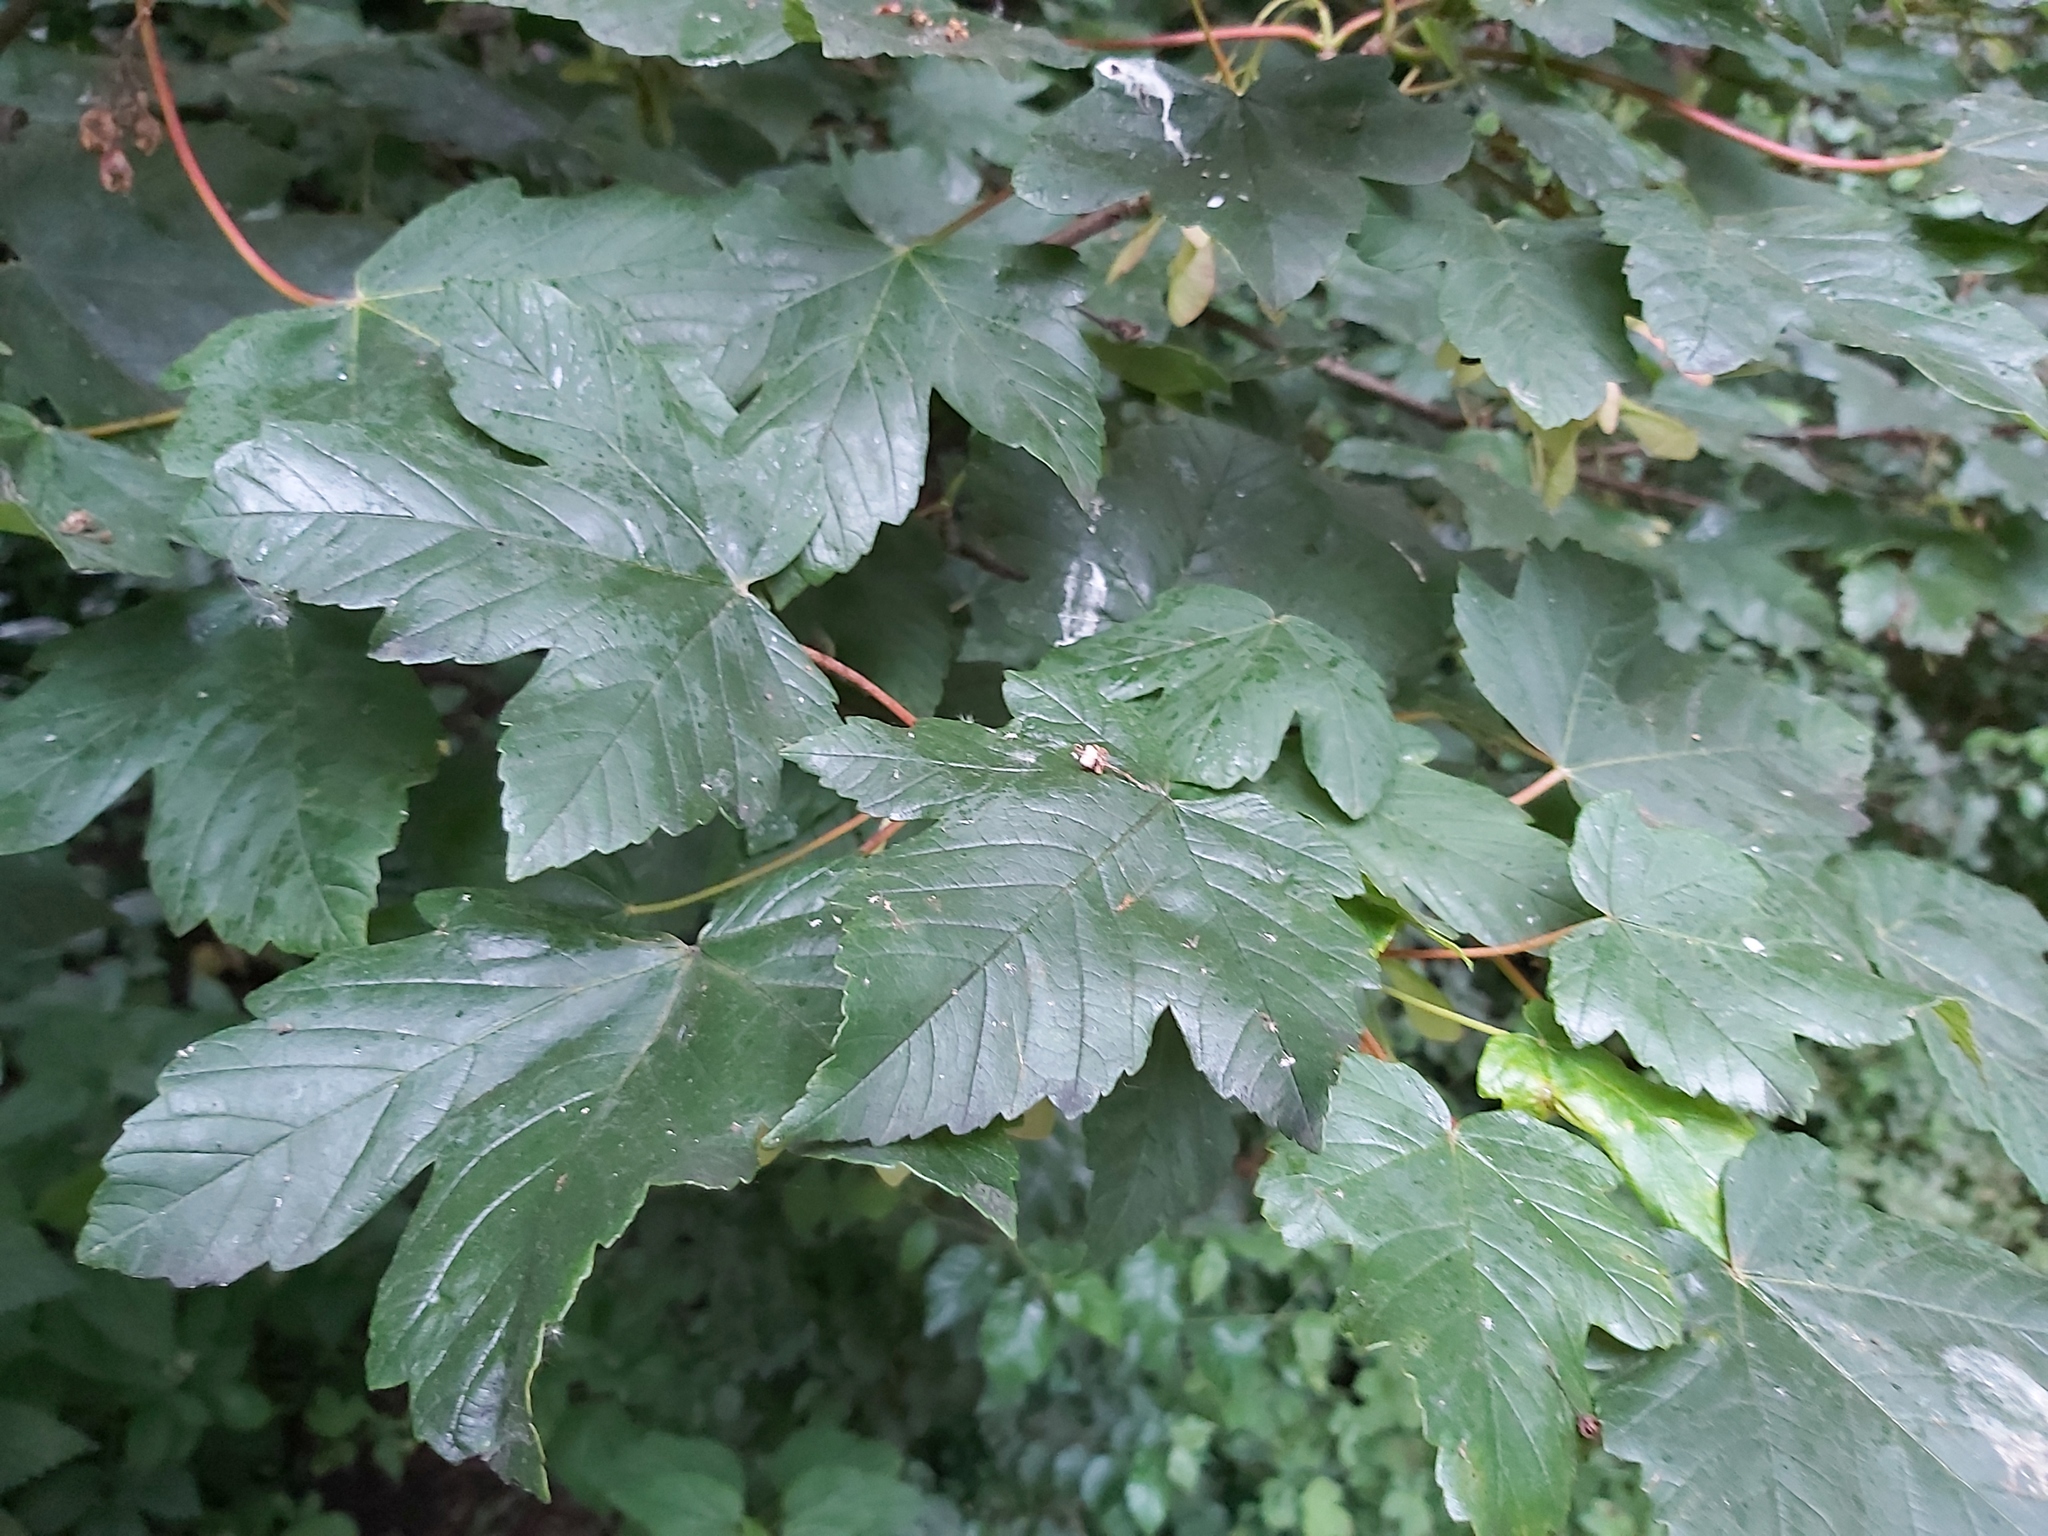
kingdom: Plantae
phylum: Tracheophyta
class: Magnoliopsida
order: Sapindales
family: Sapindaceae
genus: Acer
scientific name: Acer pseudoplatanus
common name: Sycamore
